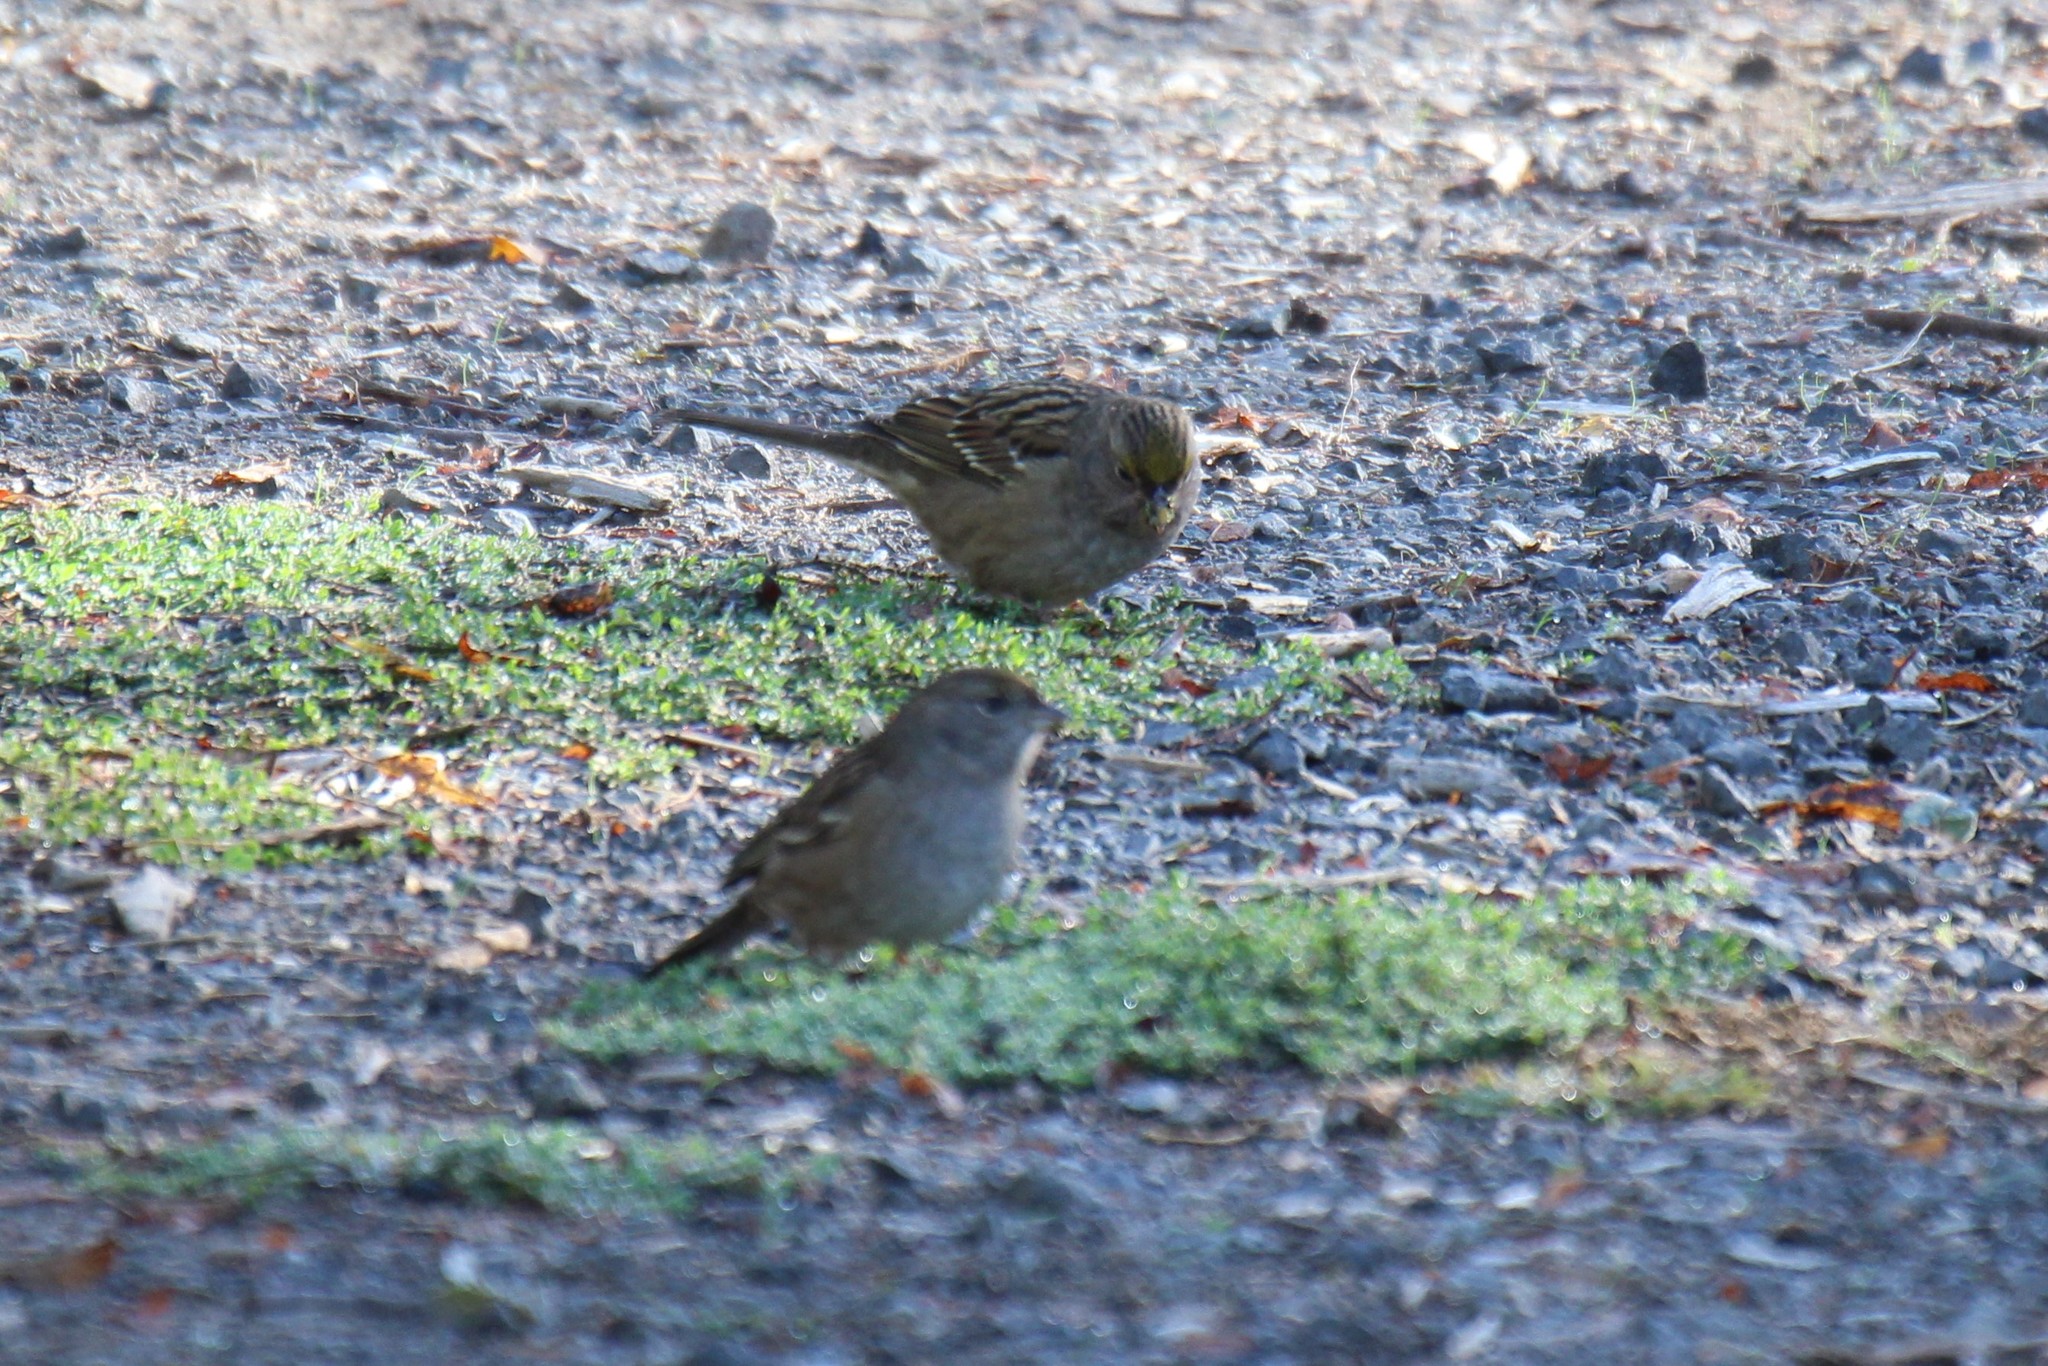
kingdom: Animalia
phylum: Chordata
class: Aves
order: Passeriformes
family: Passerellidae
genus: Zonotrichia
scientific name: Zonotrichia atricapilla
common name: Golden-crowned sparrow
